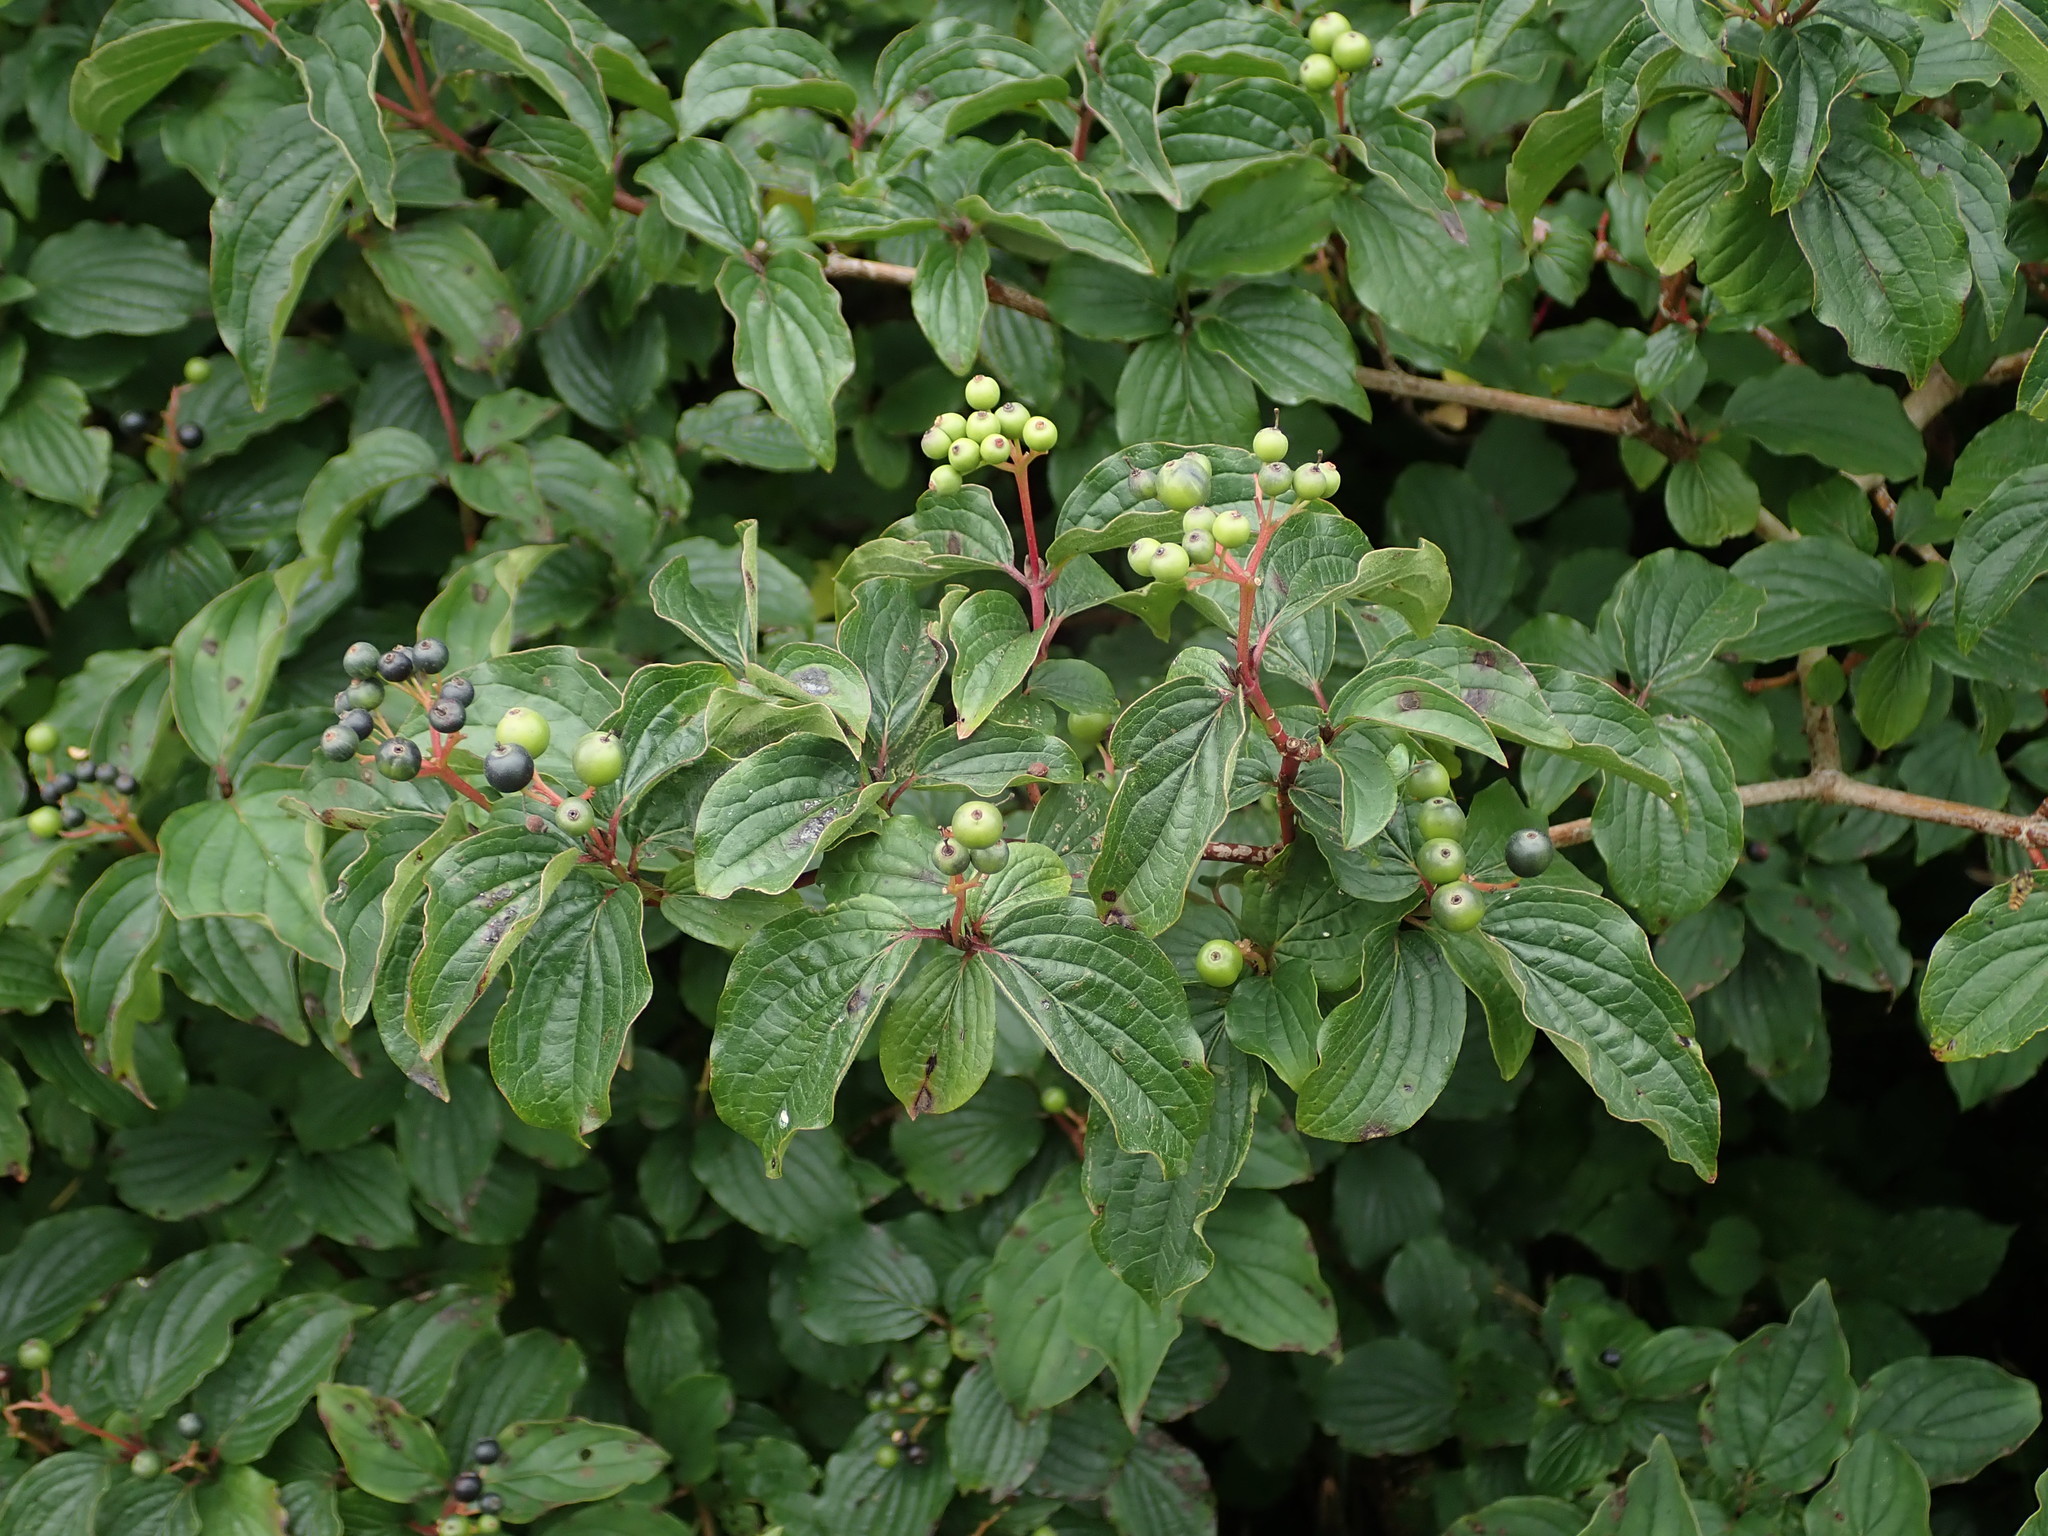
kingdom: Plantae
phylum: Tracheophyta
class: Magnoliopsida
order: Cornales
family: Cornaceae
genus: Cornus
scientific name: Cornus sanguinea
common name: Dogwood
